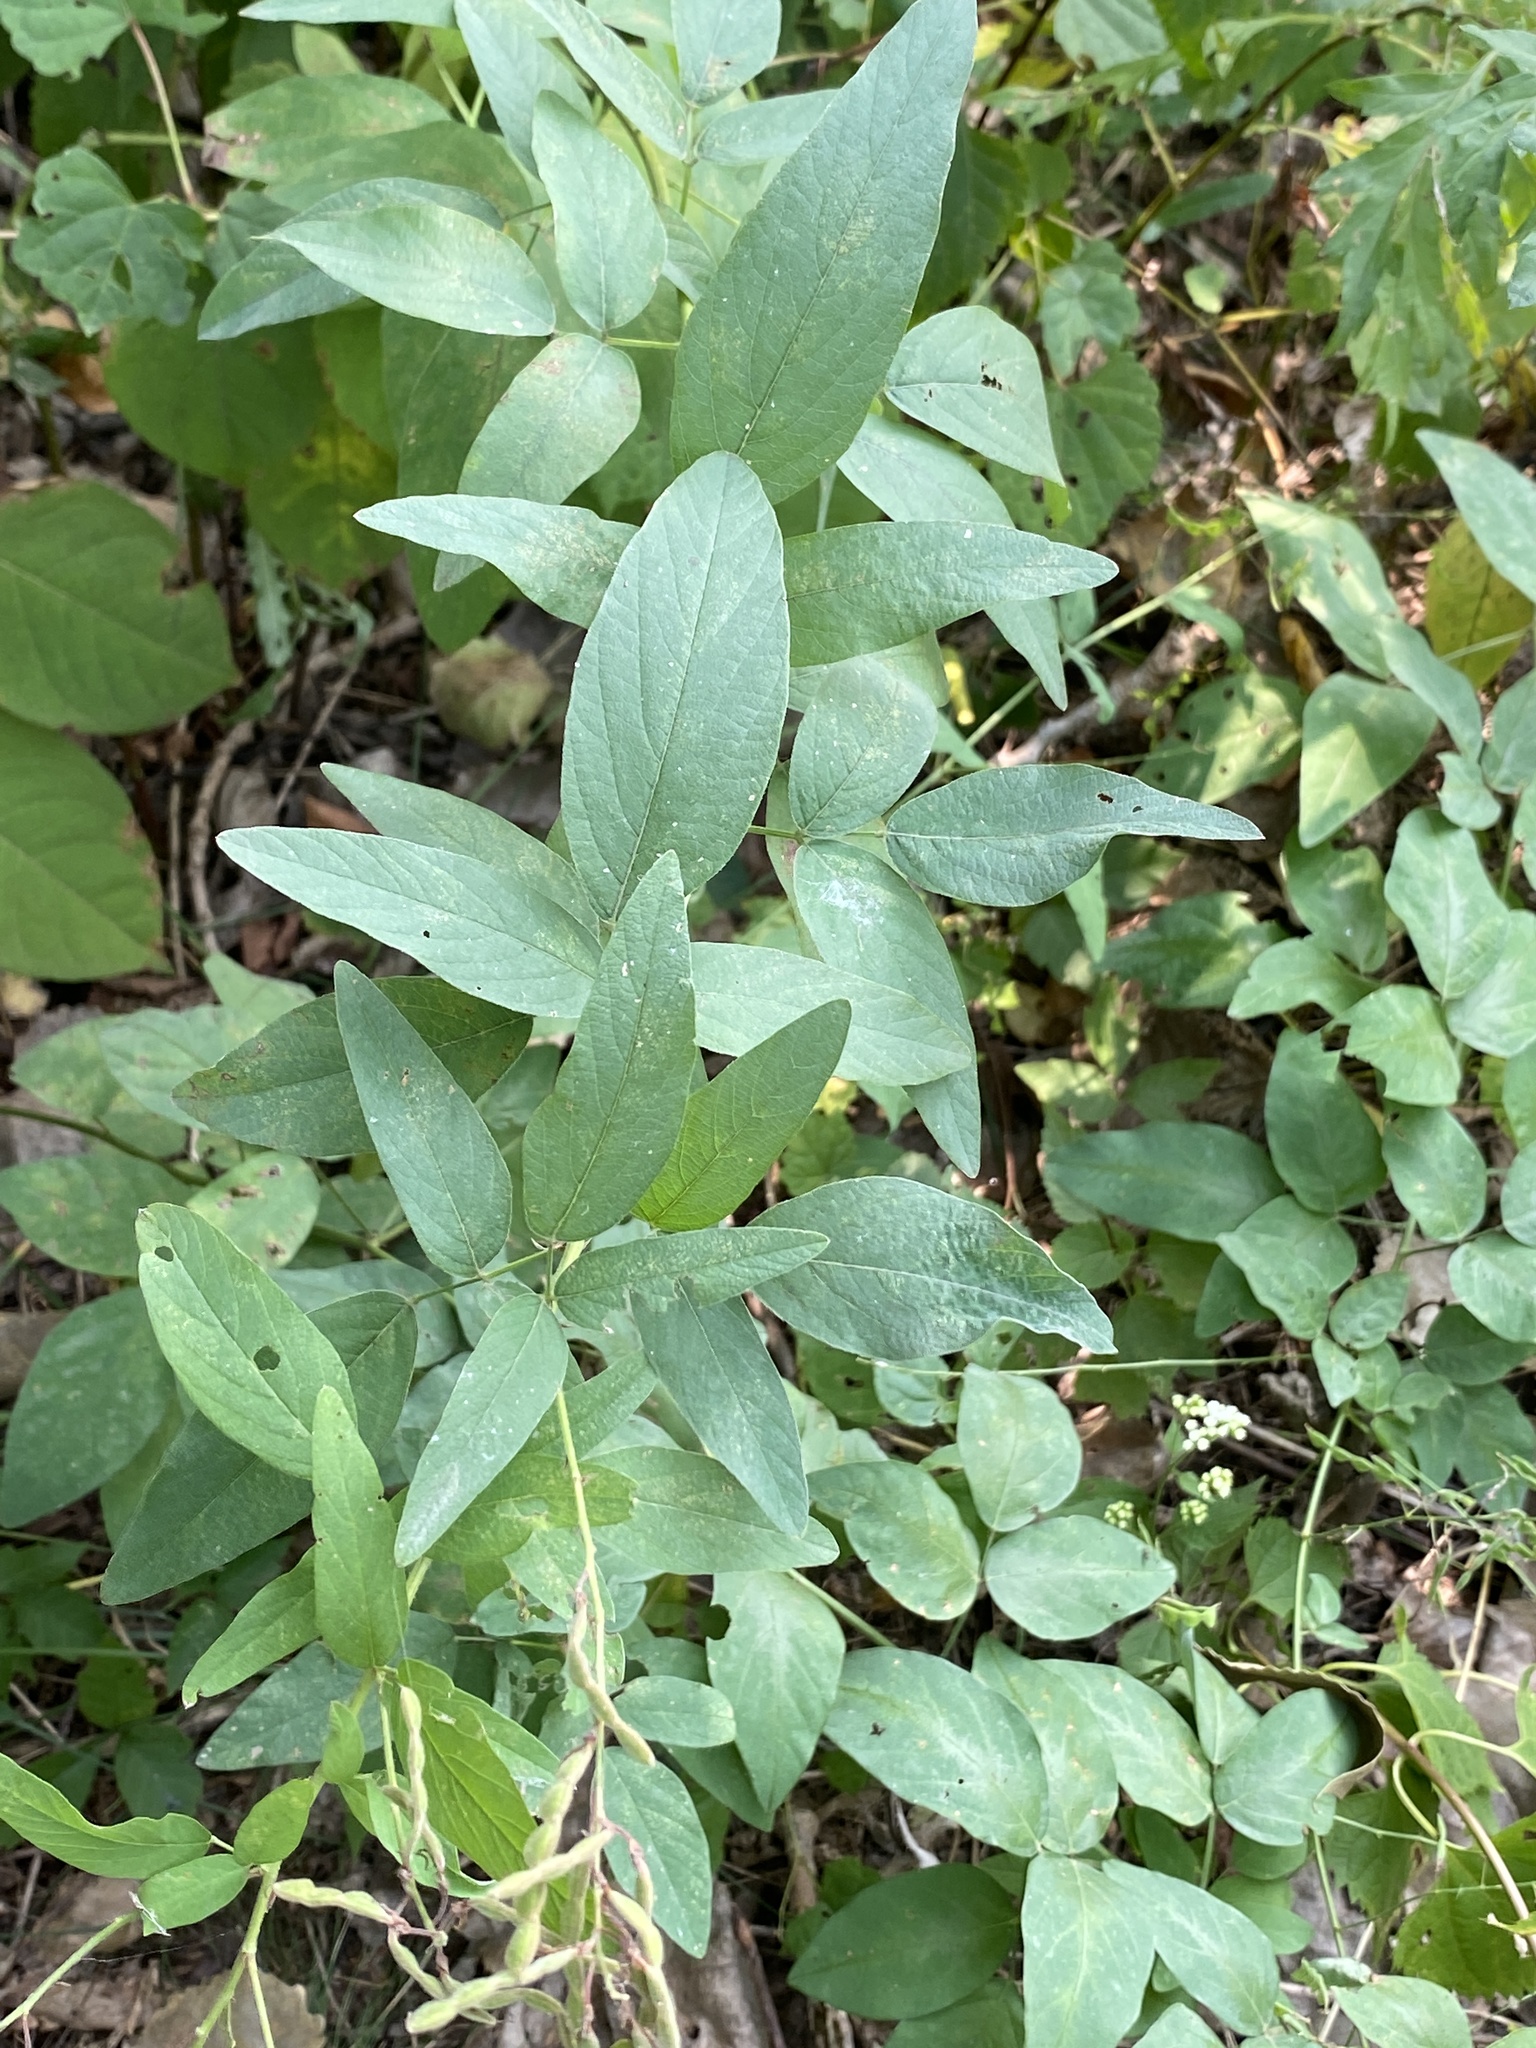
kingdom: Plantae
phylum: Tracheophyta
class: Magnoliopsida
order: Fabales
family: Fabaceae
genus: Desmodium
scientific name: Desmodium canadense
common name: Canada tick-trefoil
